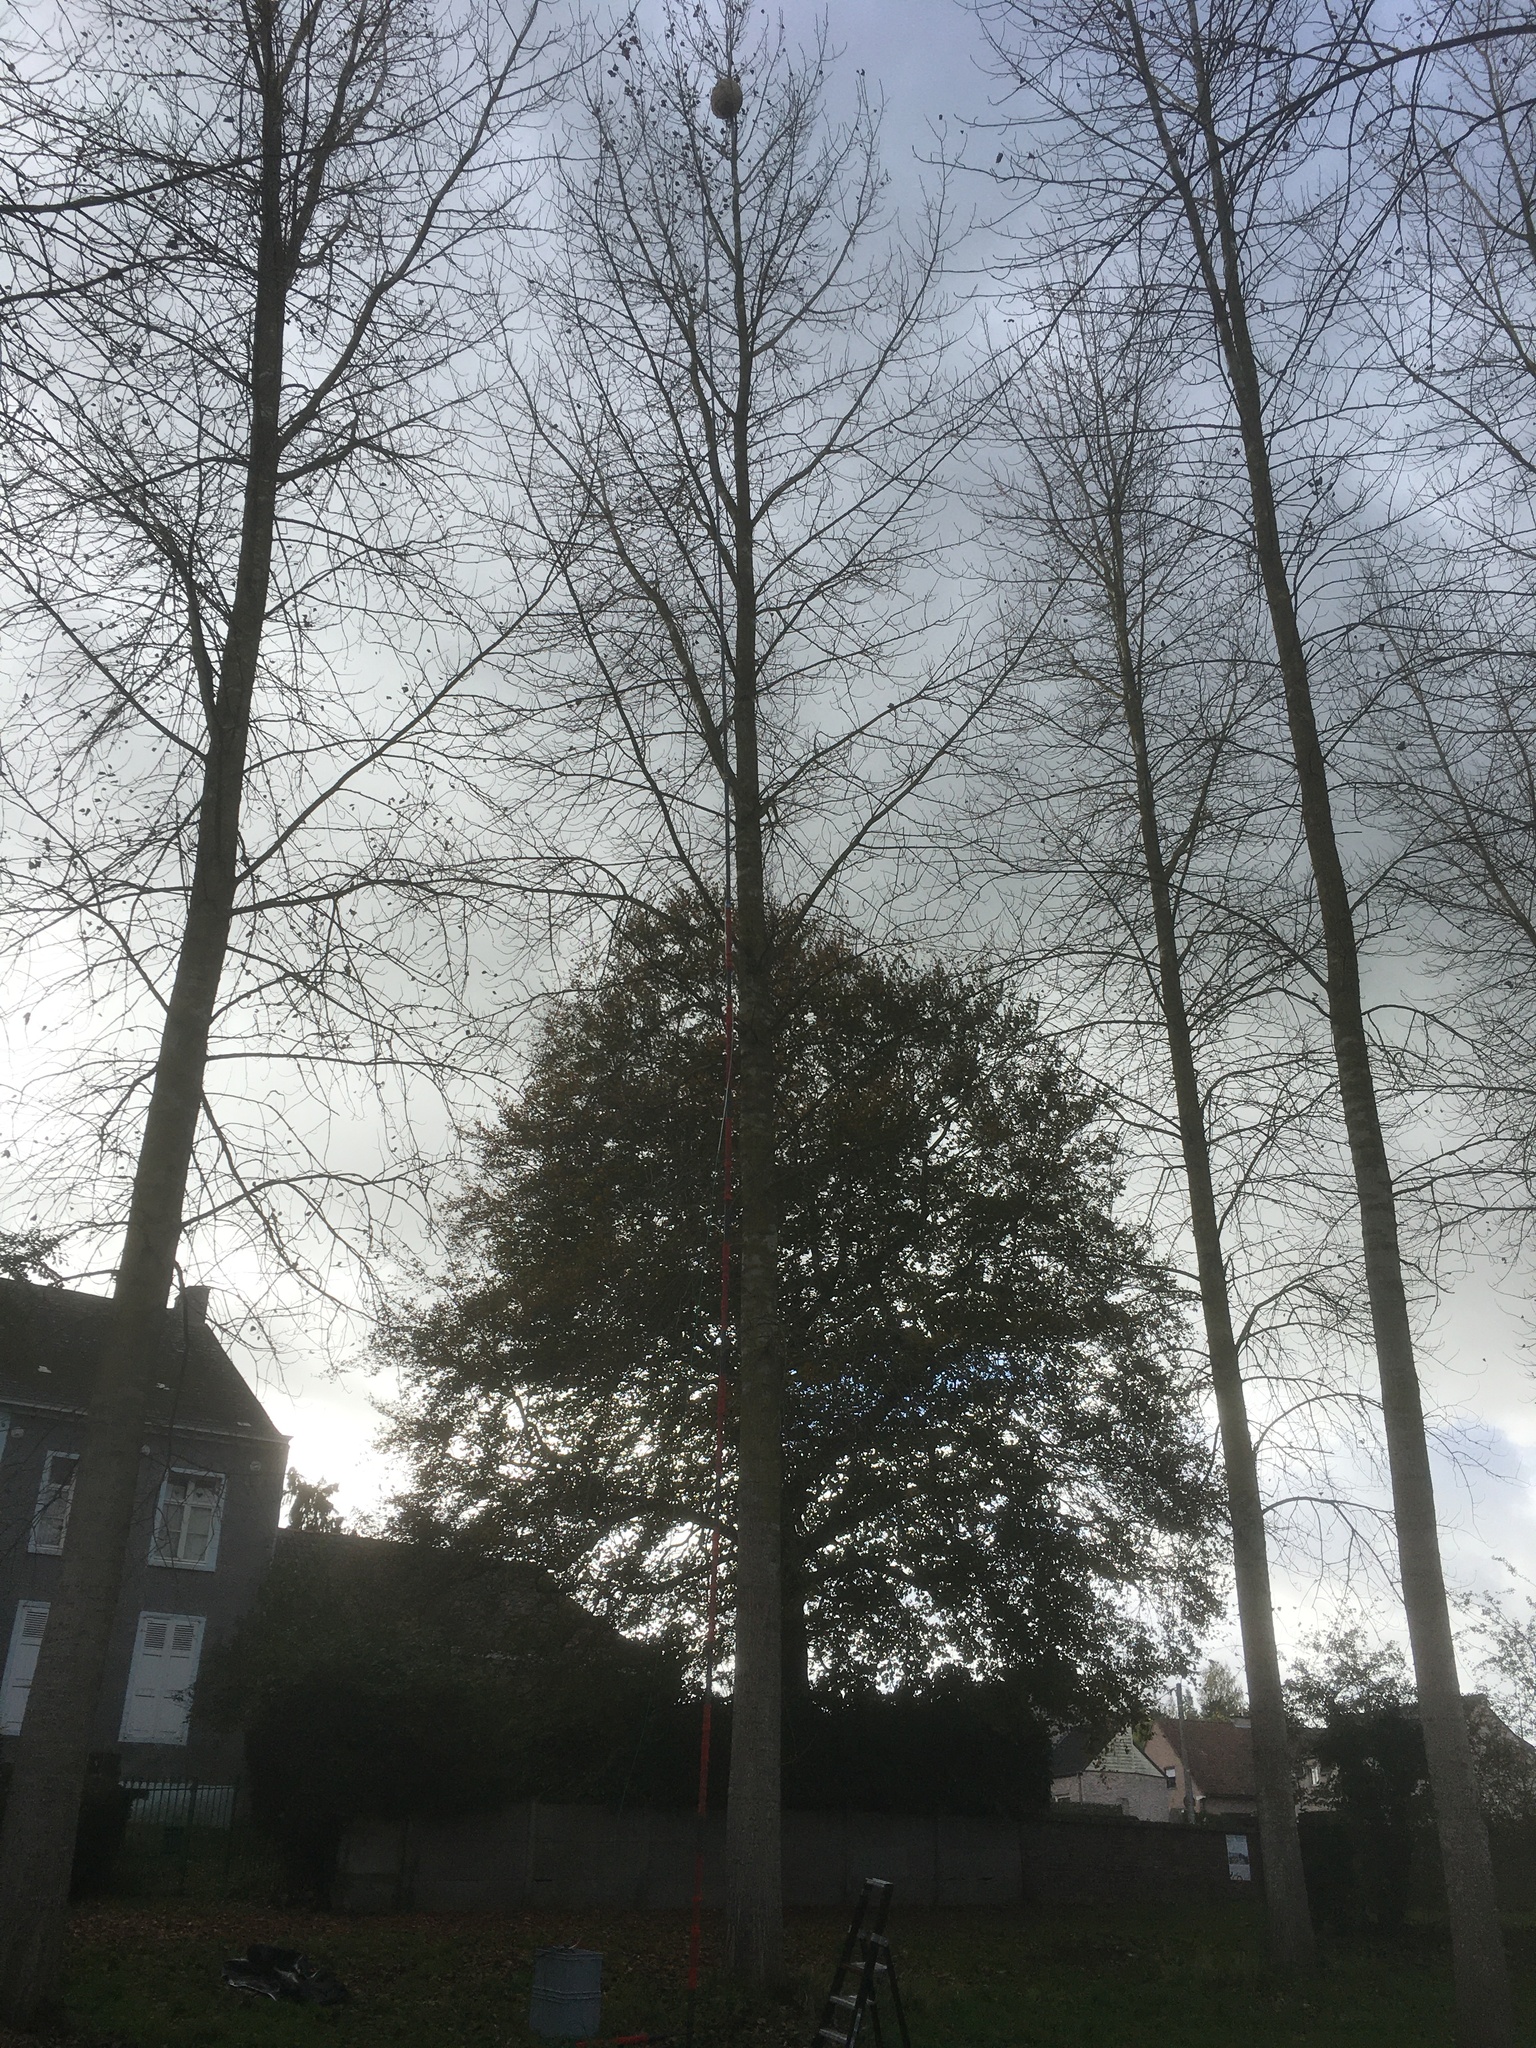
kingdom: Animalia
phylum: Arthropoda
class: Insecta
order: Hymenoptera
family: Vespidae
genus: Vespa
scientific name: Vespa velutina
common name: Asian hornet
